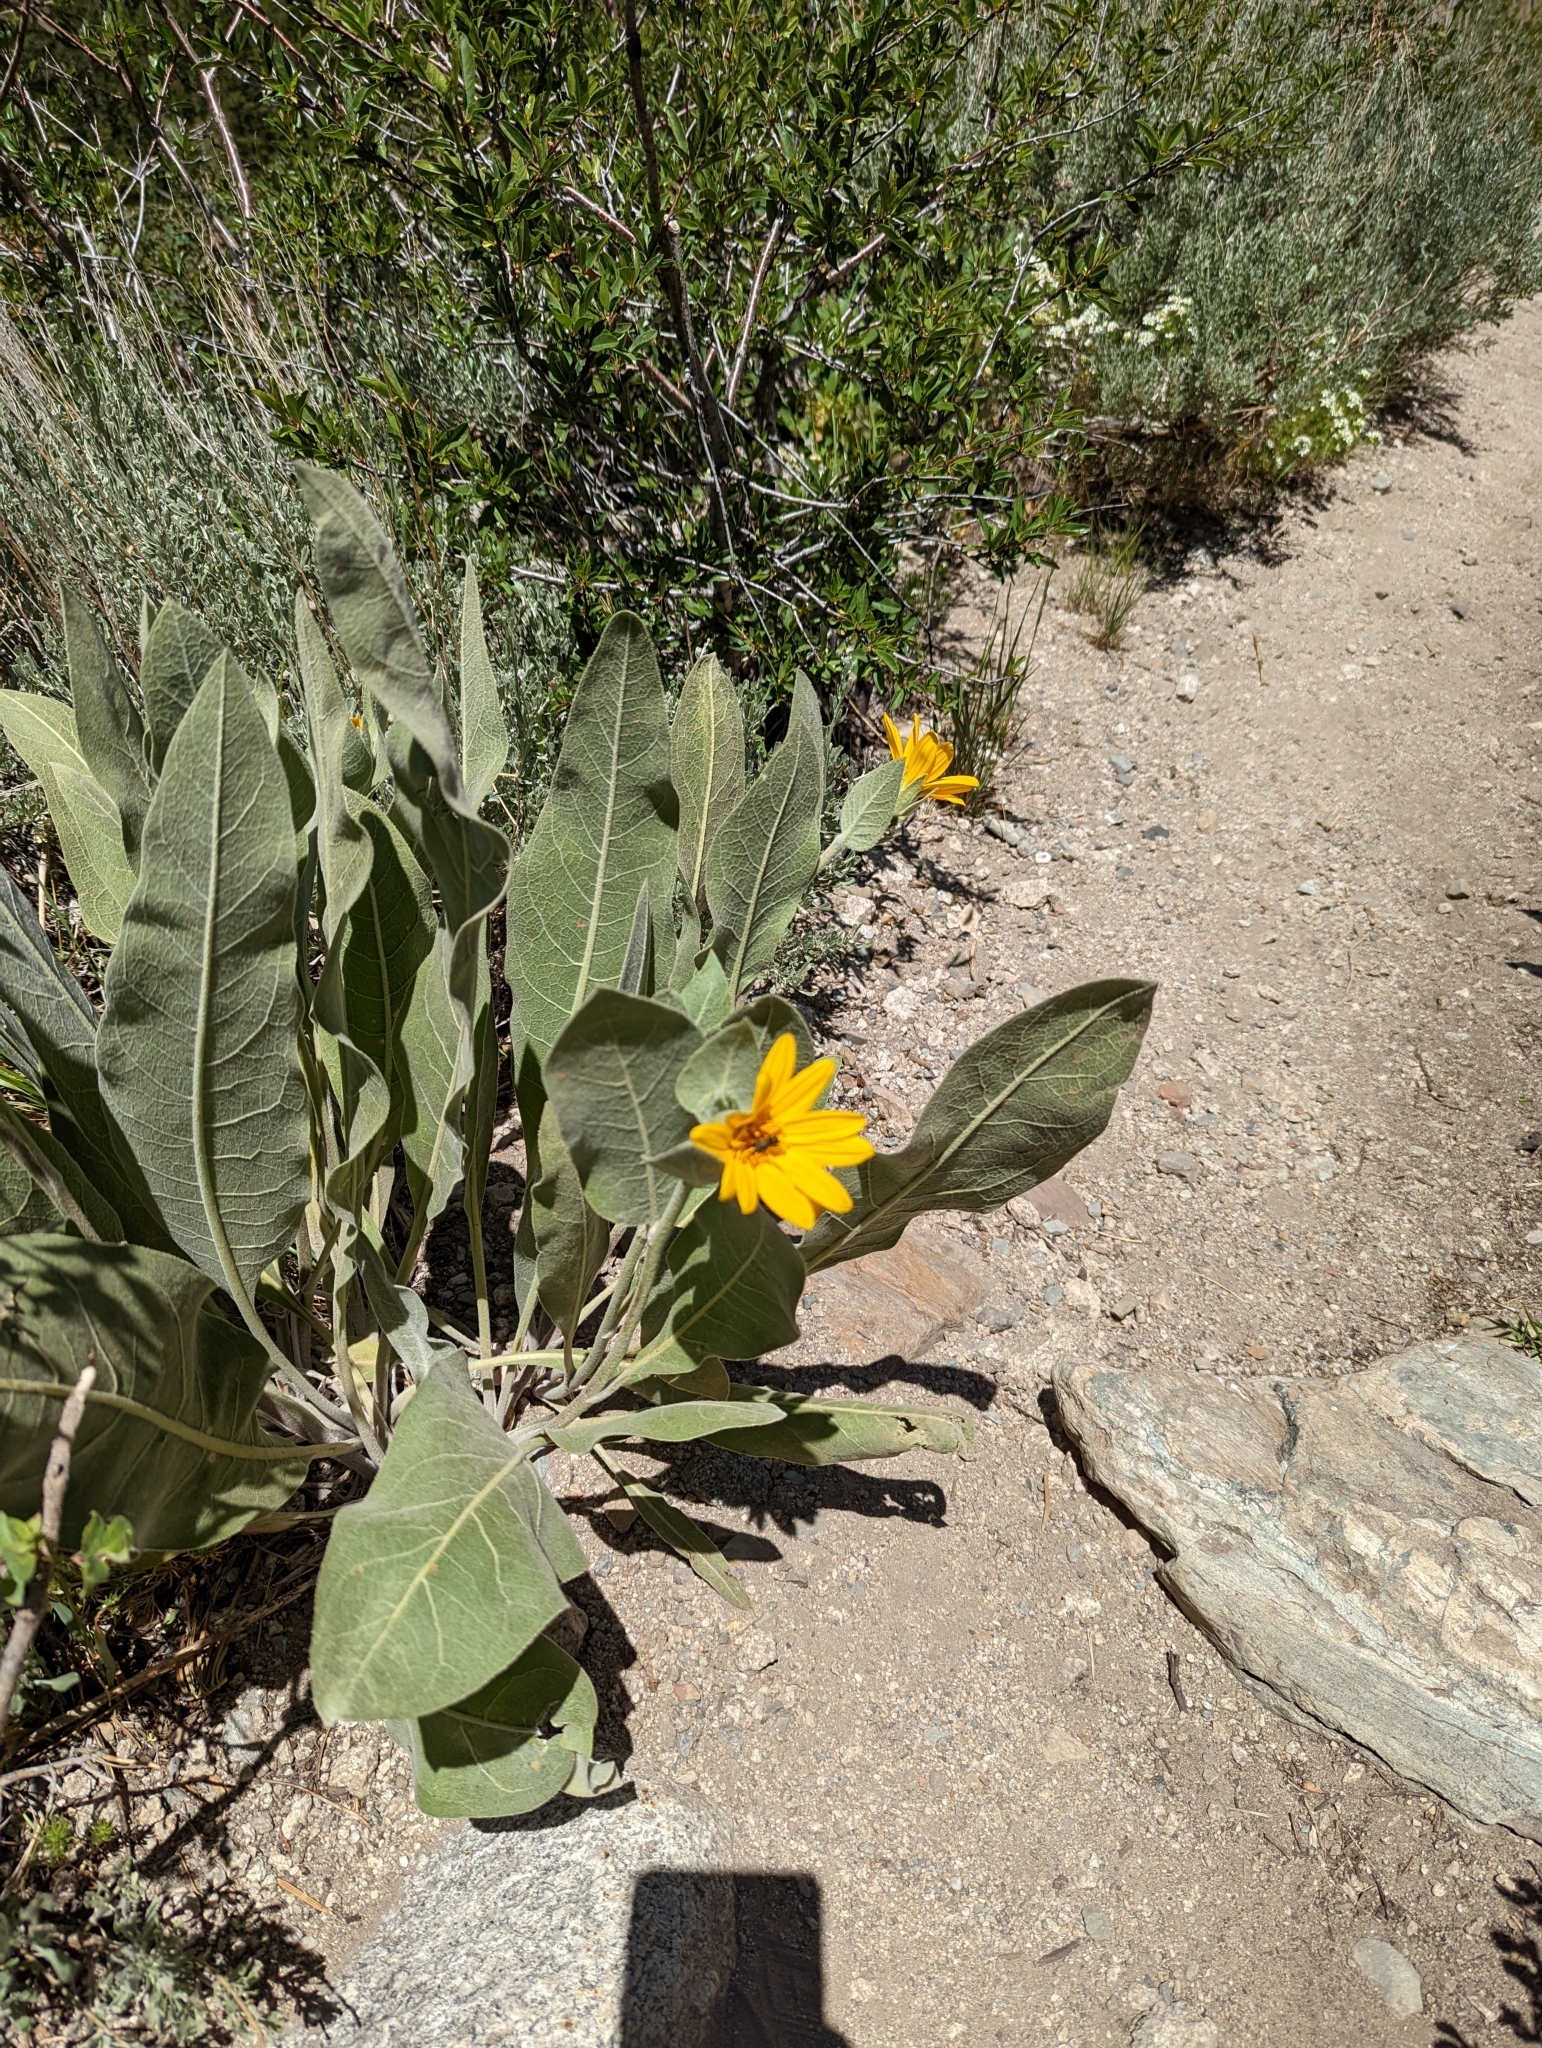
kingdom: Plantae
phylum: Tracheophyta
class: Magnoliopsida
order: Asterales
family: Asteraceae
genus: Wyethia
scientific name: Wyethia mollis
